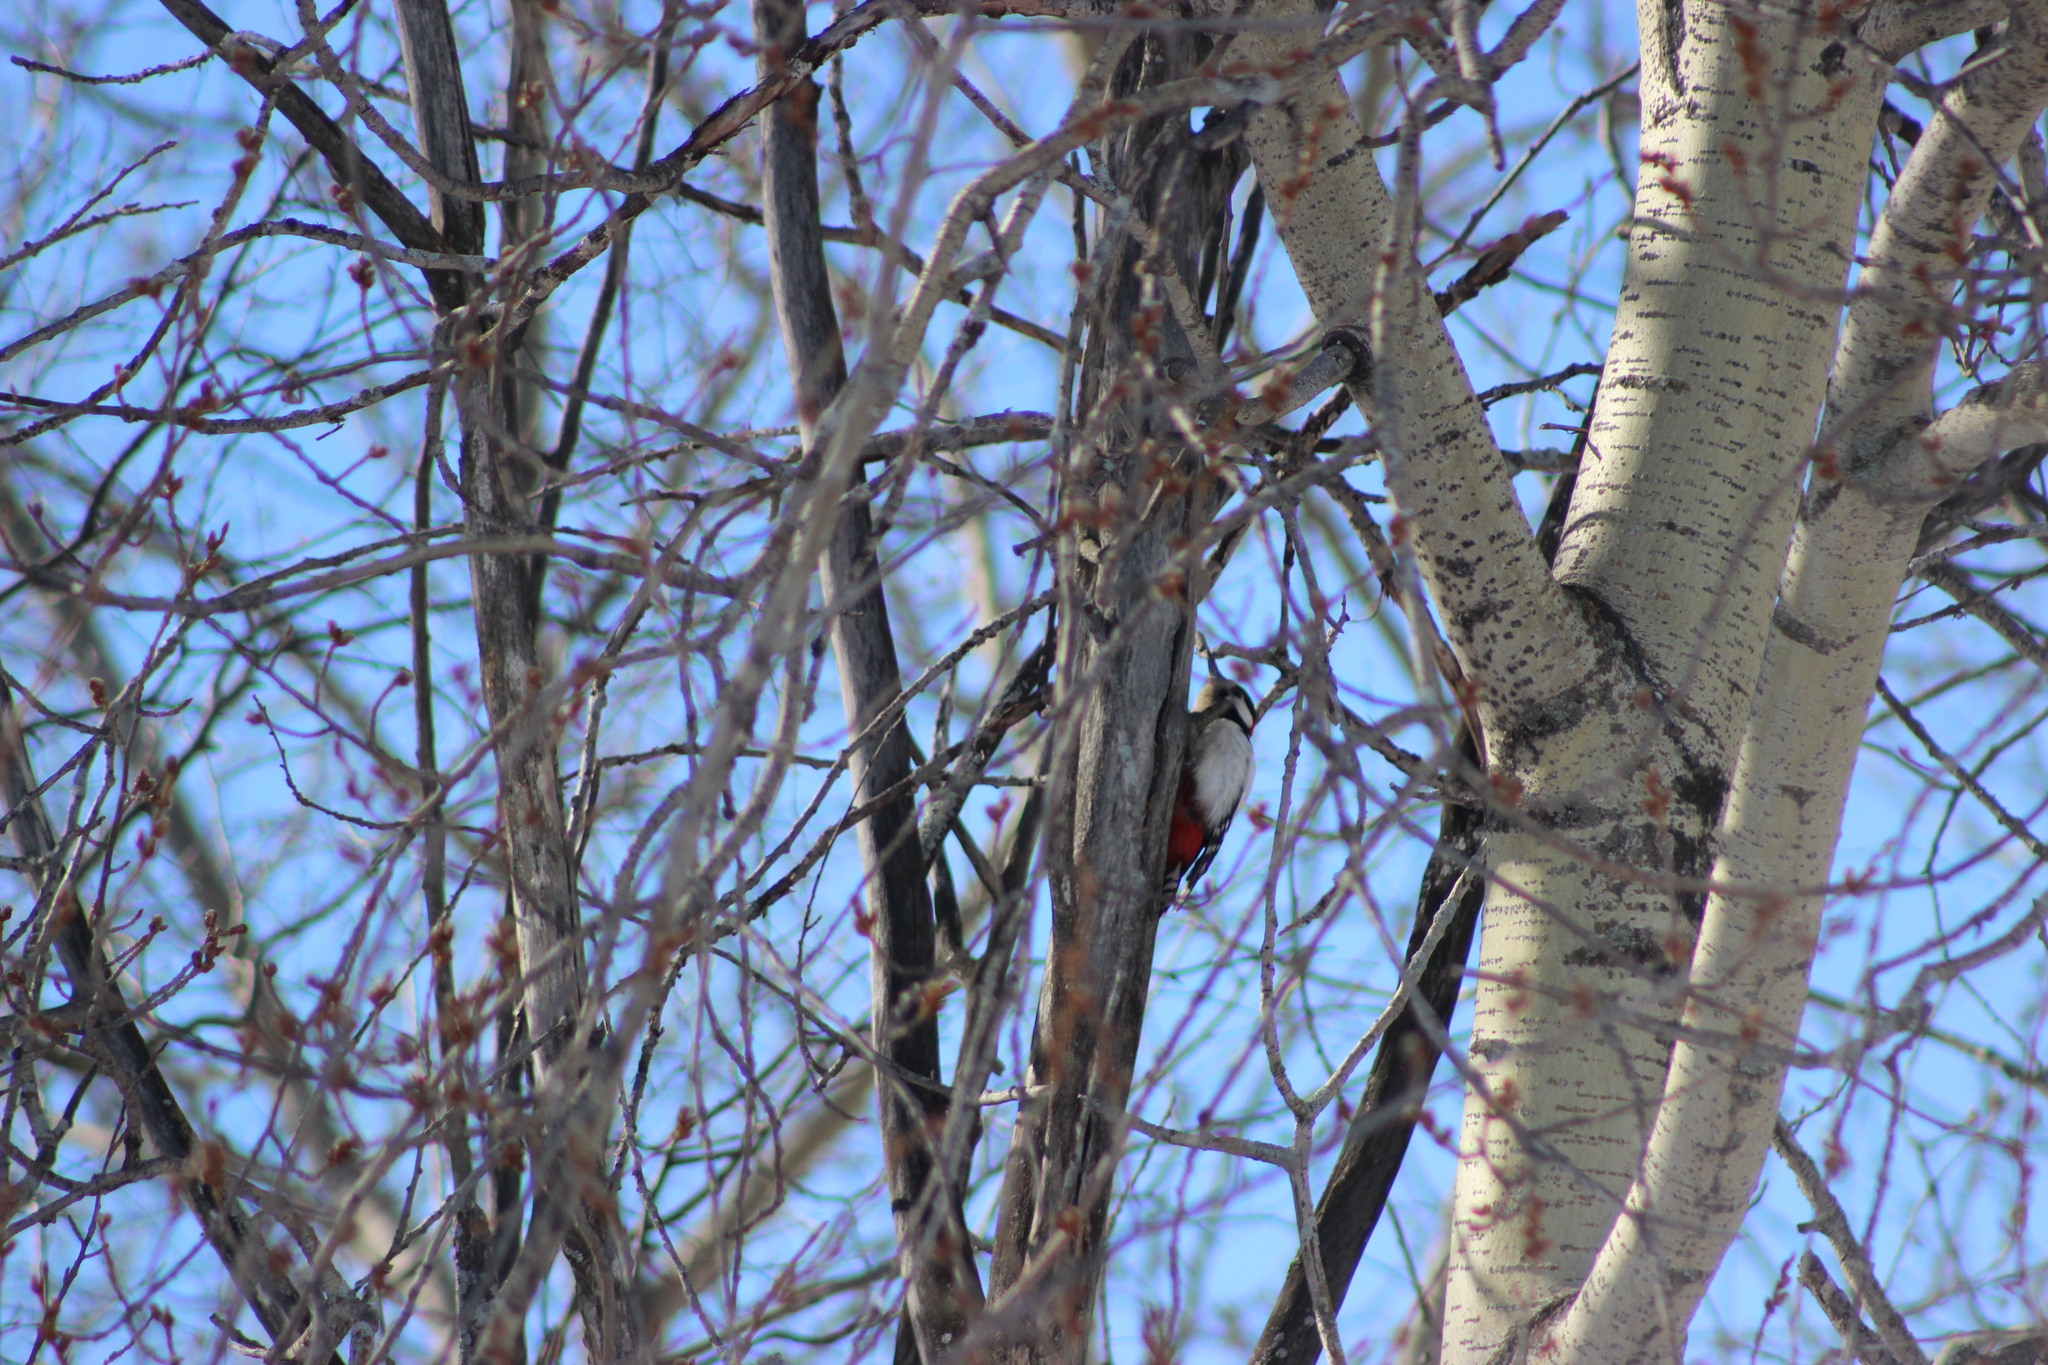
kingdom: Animalia
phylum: Chordata
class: Aves
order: Piciformes
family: Picidae
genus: Dendrocopos
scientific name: Dendrocopos major
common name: Great spotted woodpecker
